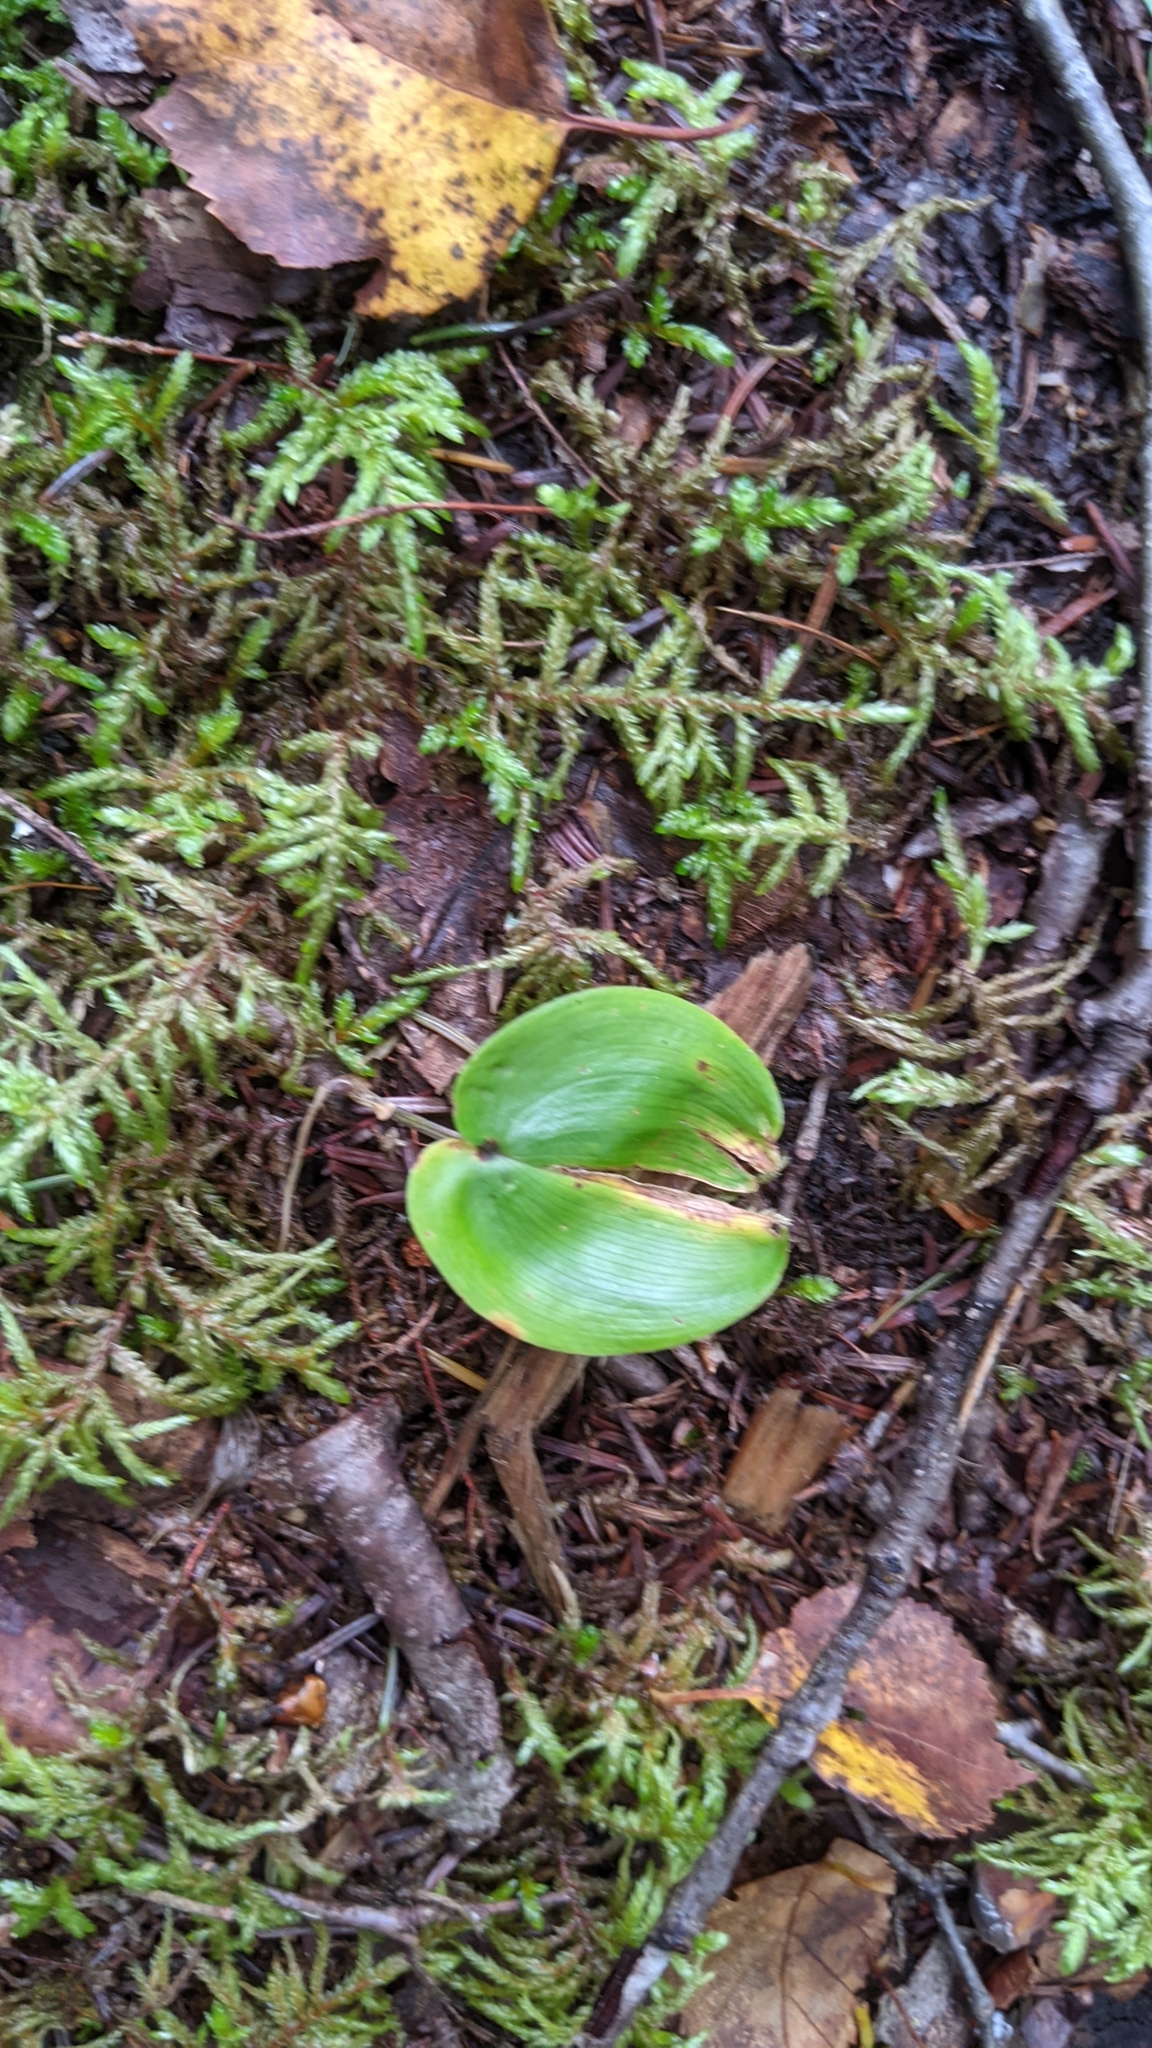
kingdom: Plantae
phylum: Tracheophyta
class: Liliopsida
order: Asparagales
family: Asparagaceae
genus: Maianthemum
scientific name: Maianthemum canadense
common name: False lily-of-the-valley
